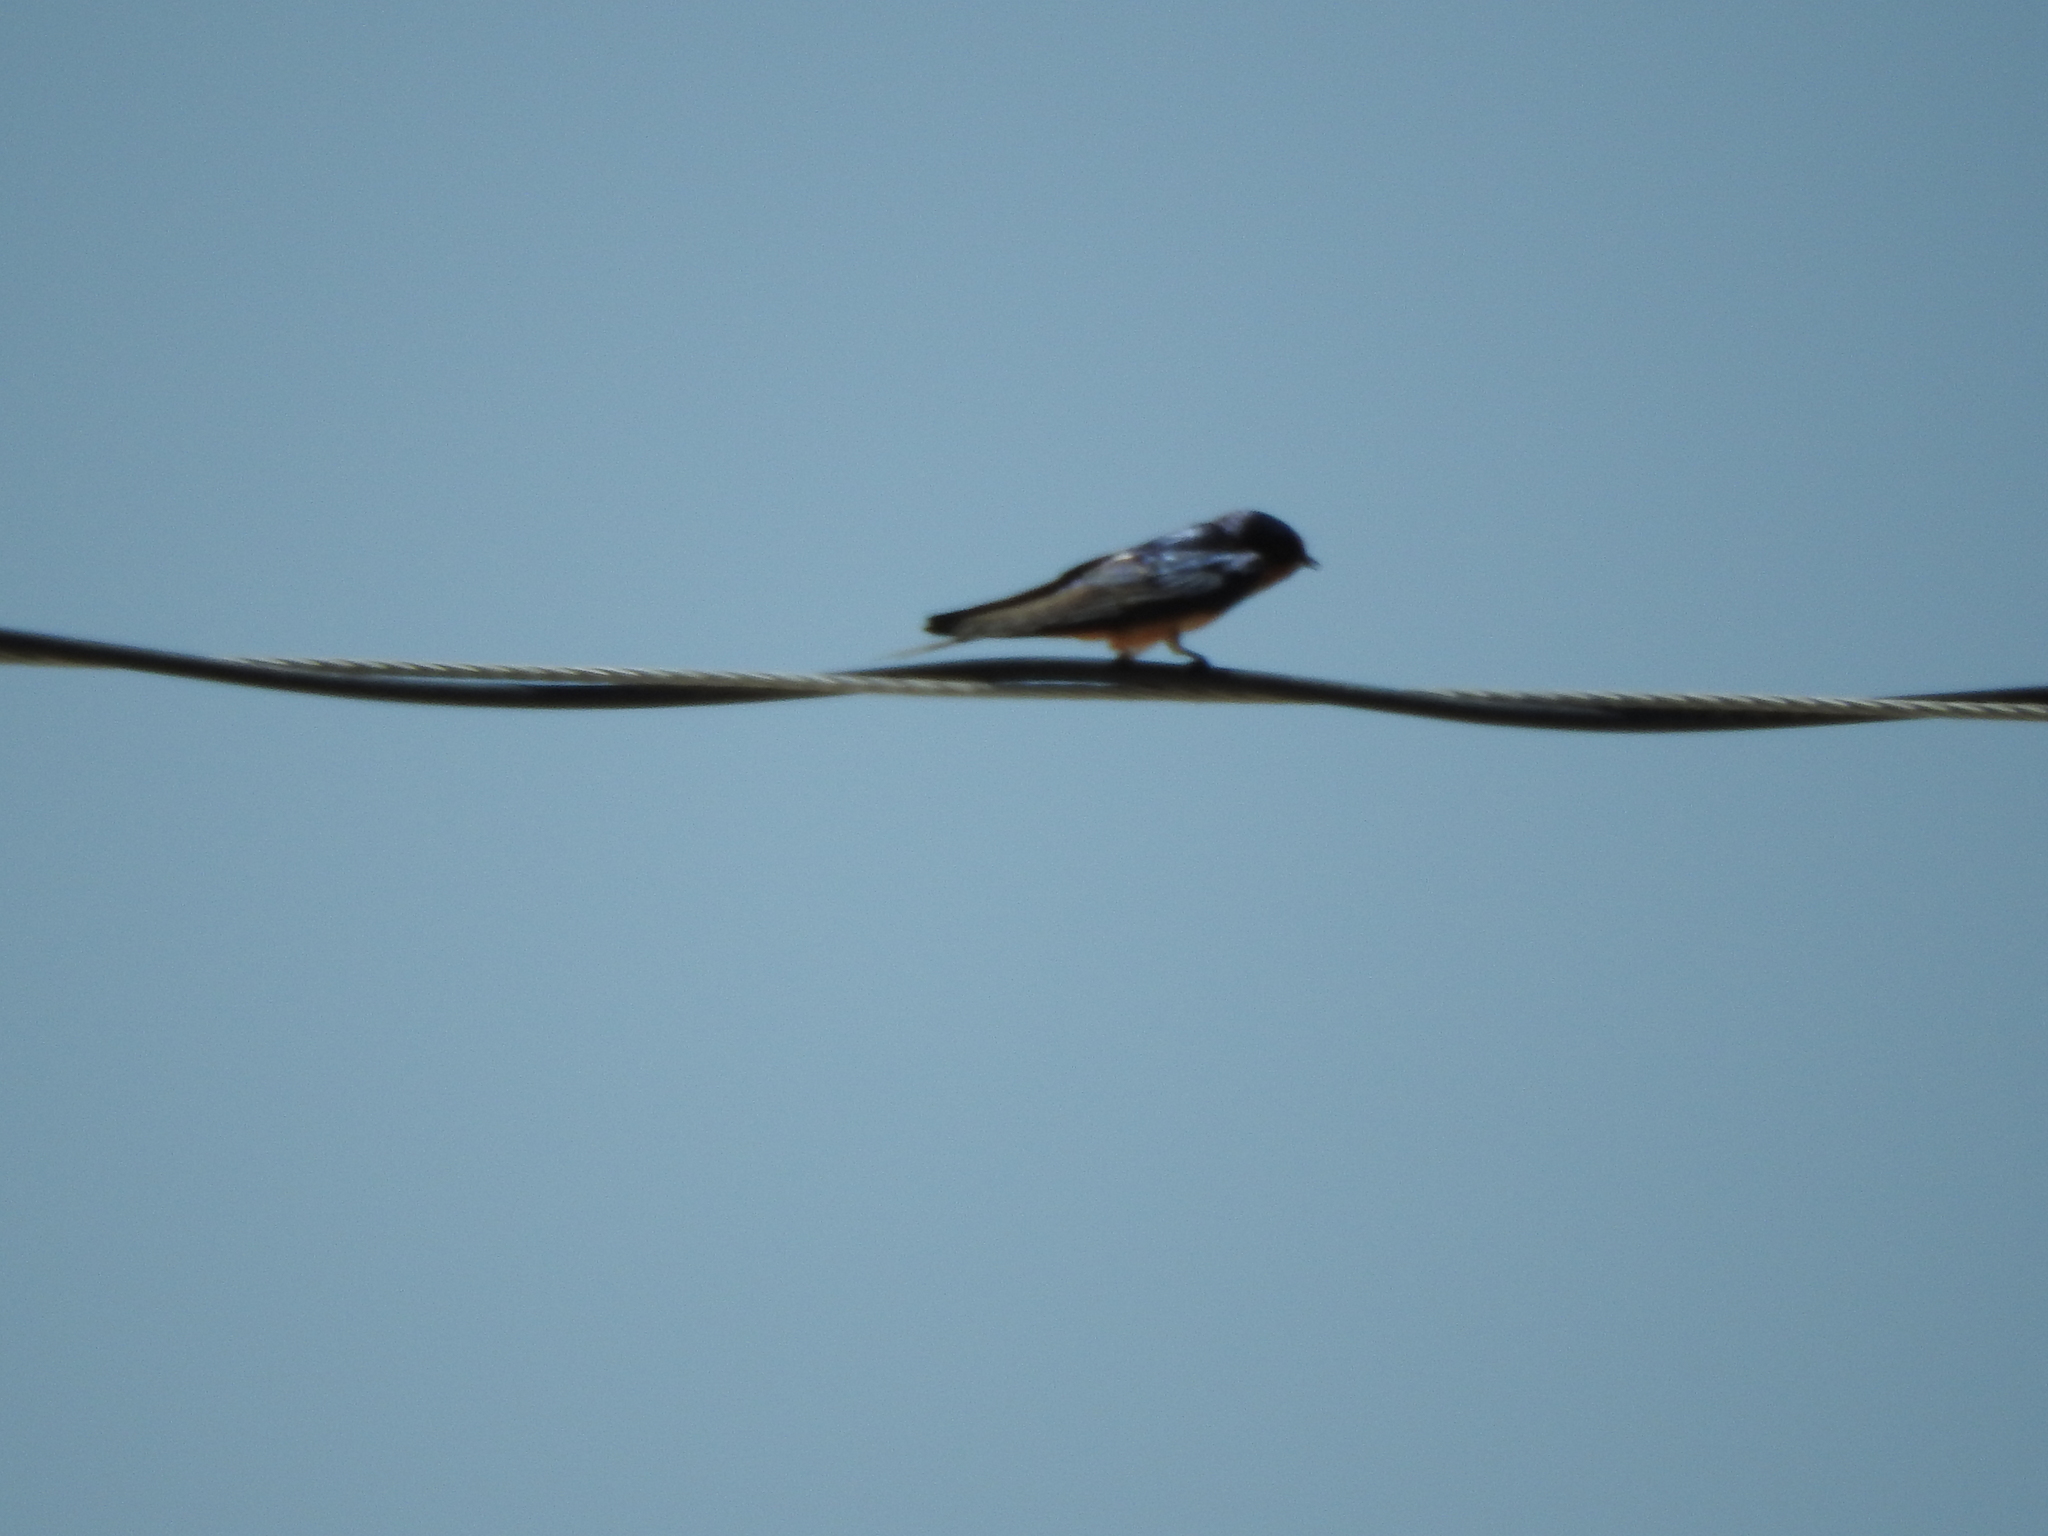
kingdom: Animalia
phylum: Chordata
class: Aves
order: Passeriformes
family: Hirundinidae
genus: Hirundo
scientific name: Hirundo rustica
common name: Barn swallow
